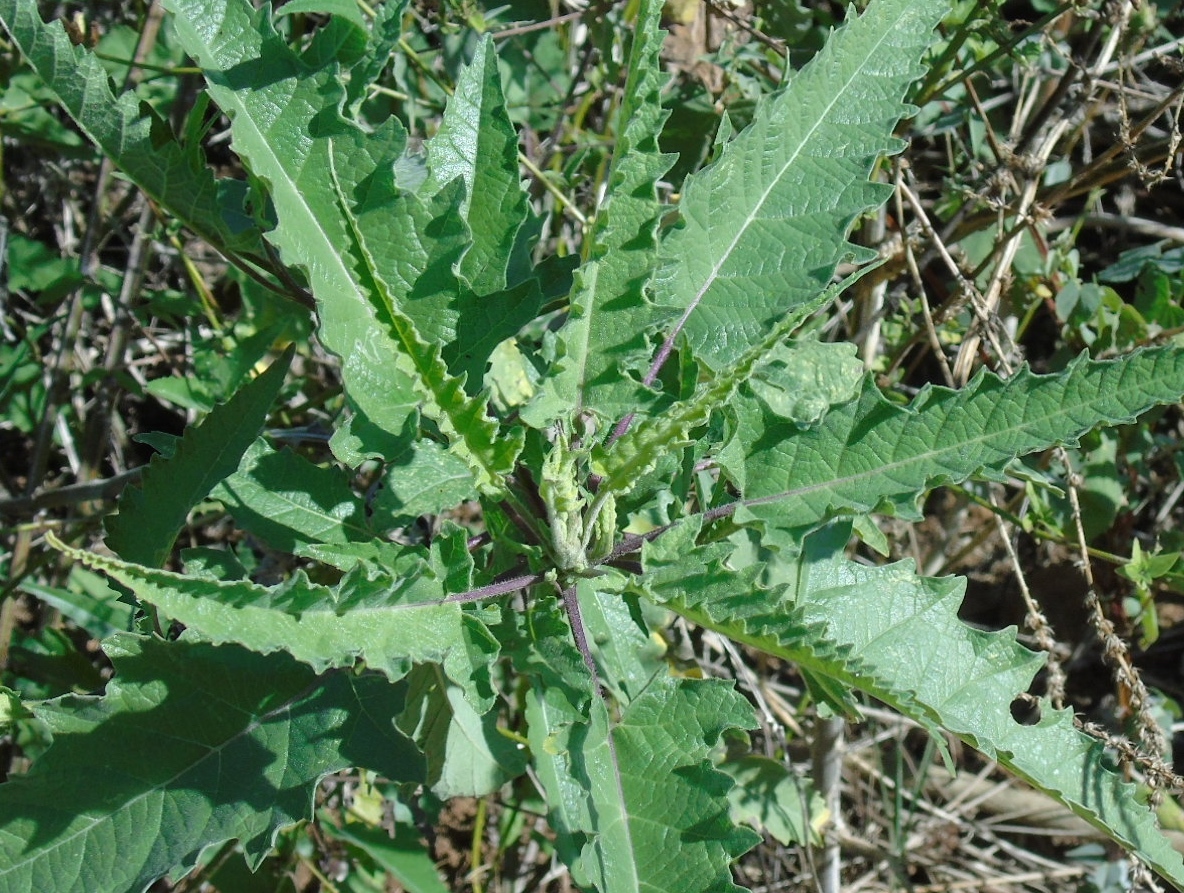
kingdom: Plantae
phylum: Tracheophyta
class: Magnoliopsida
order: Asterales
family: Asteraceae
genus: Ambrosia
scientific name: Ambrosia ambrosioides
